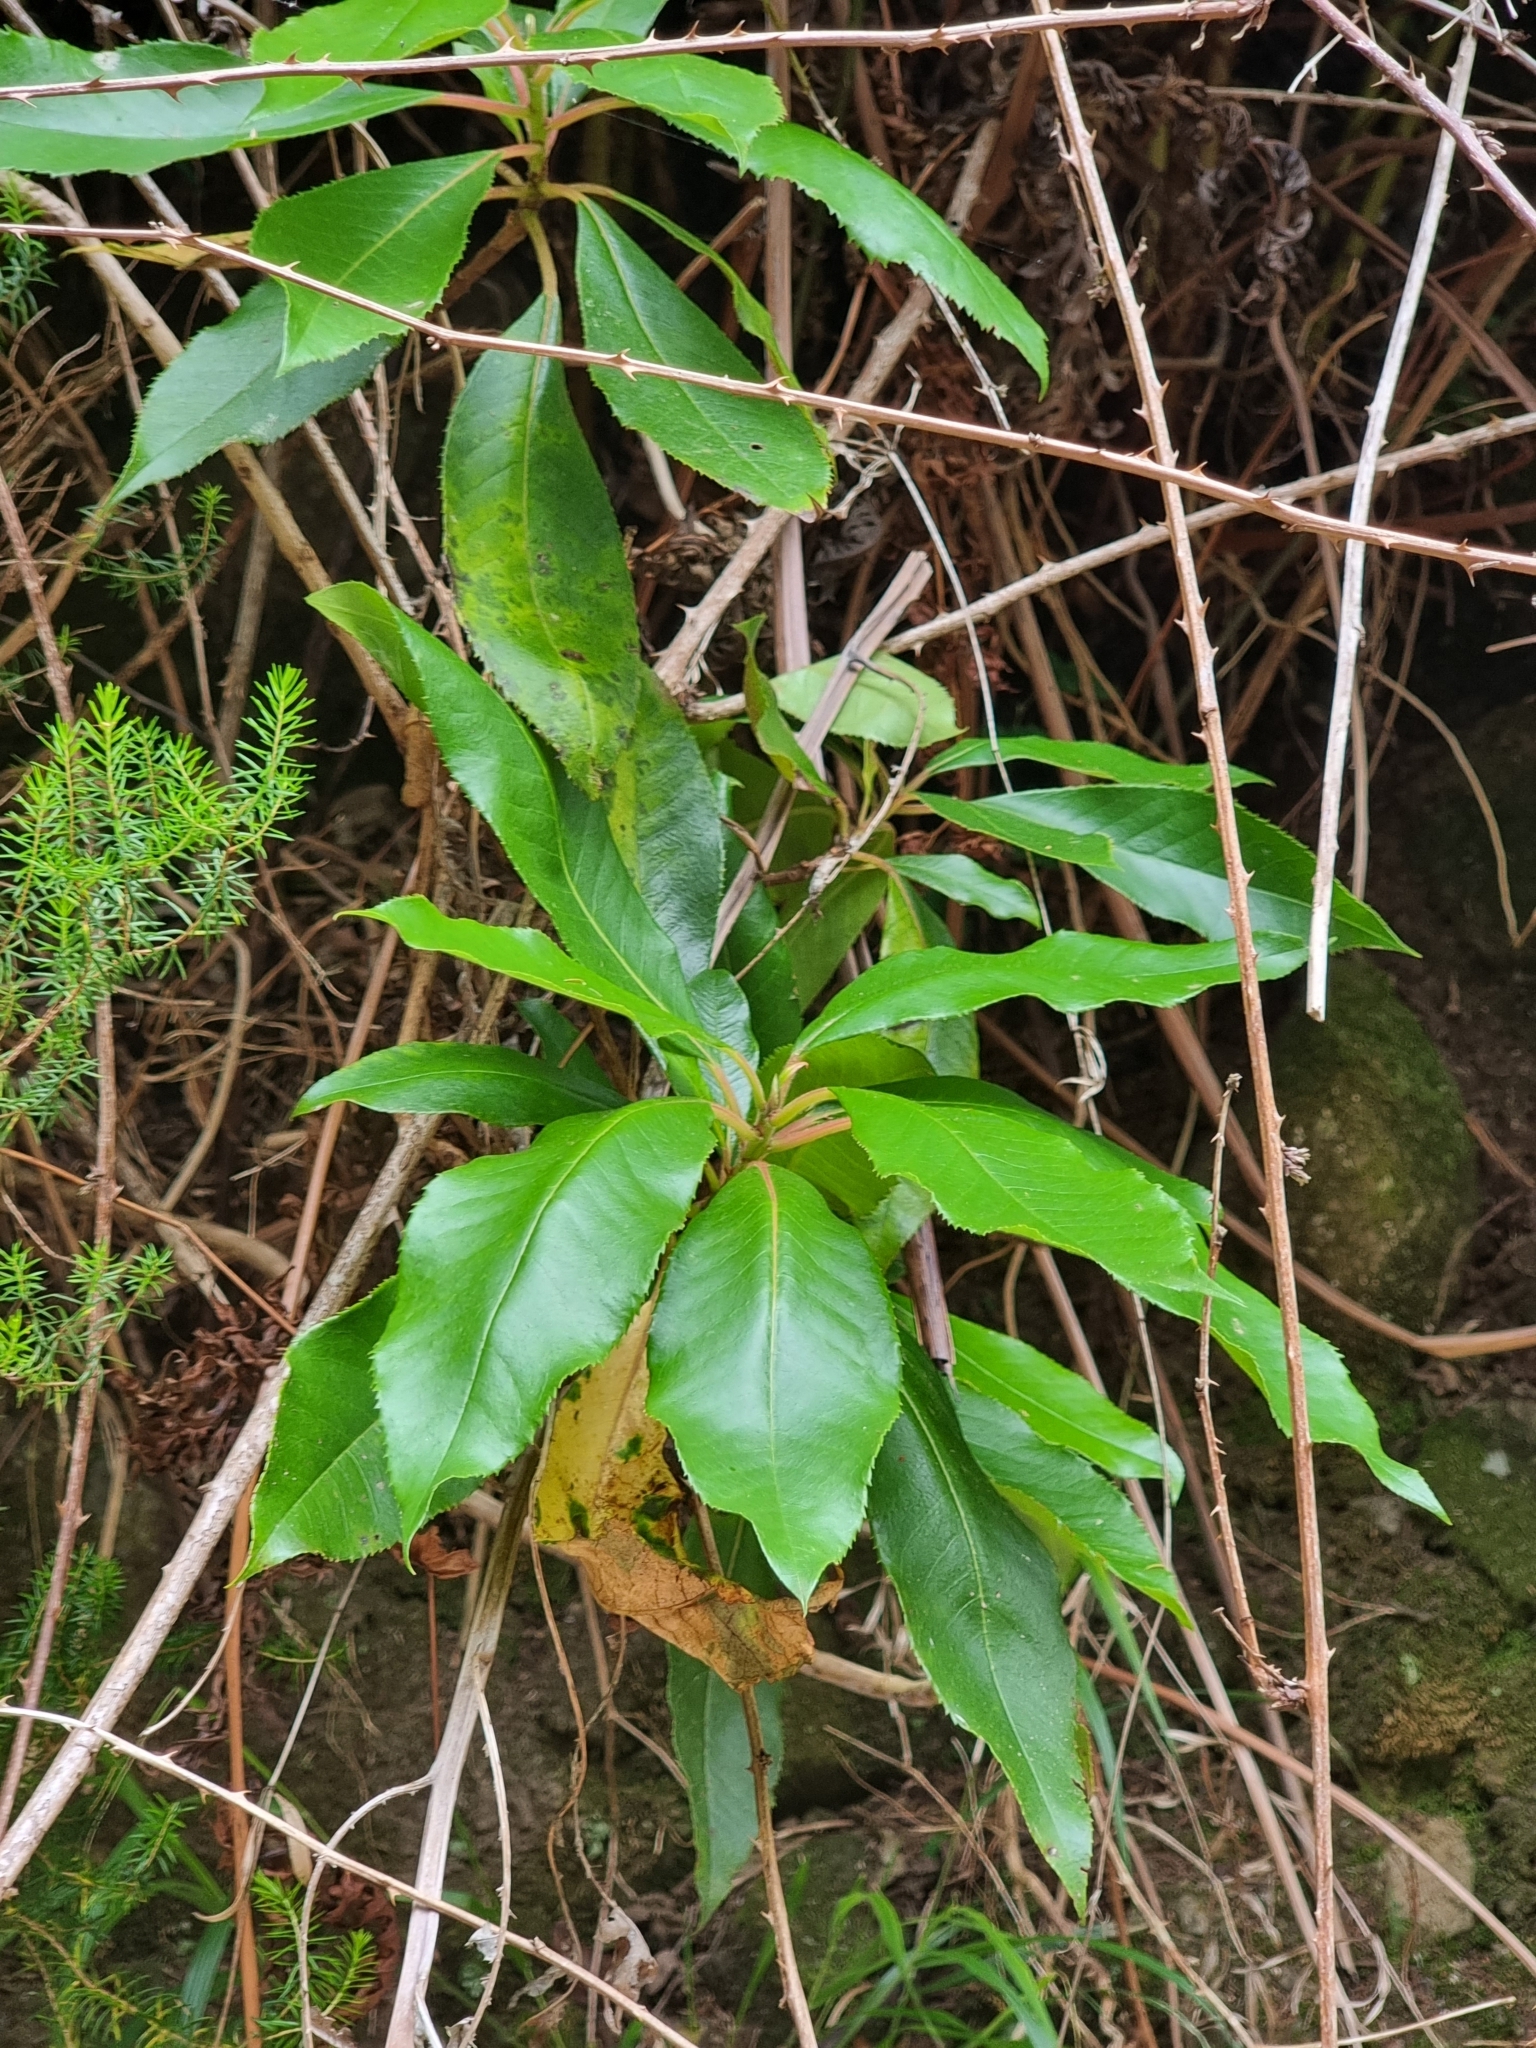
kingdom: Plantae
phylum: Tracheophyta
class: Magnoliopsida
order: Ericales
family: Clethraceae
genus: Clethra
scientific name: Clethra arborea
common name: Lily-of-the-valley-tree
